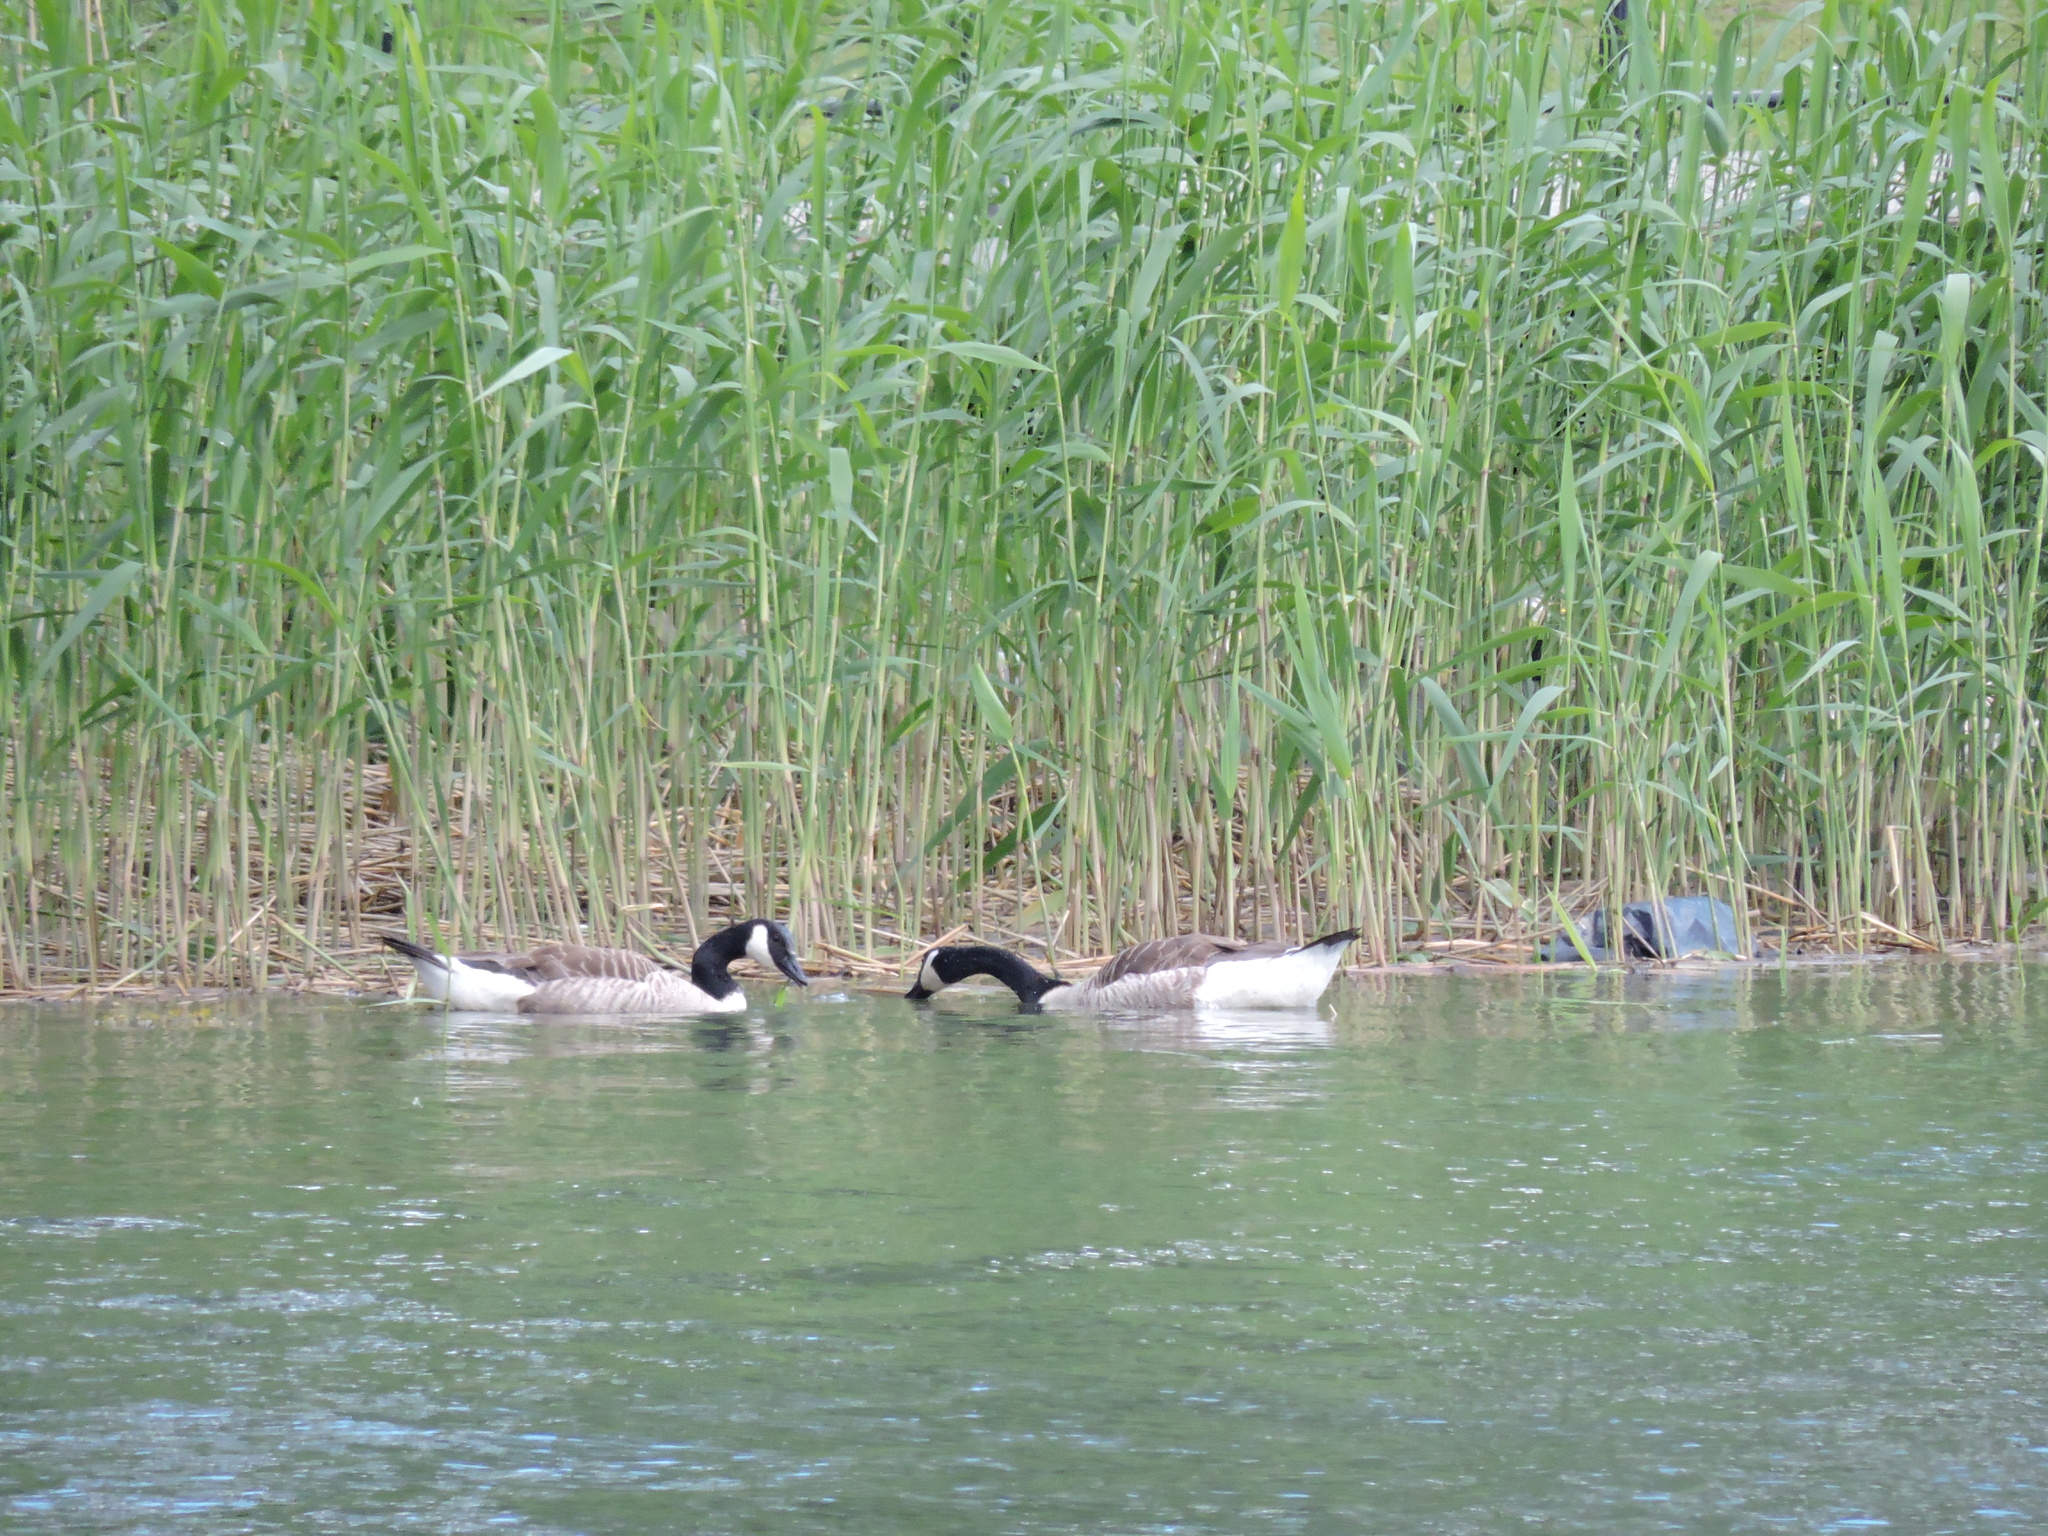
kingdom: Animalia
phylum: Chordata
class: Aves
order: Anseriformes
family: Anatidae
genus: Branta
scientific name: Branta canadensis
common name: Canada goose
